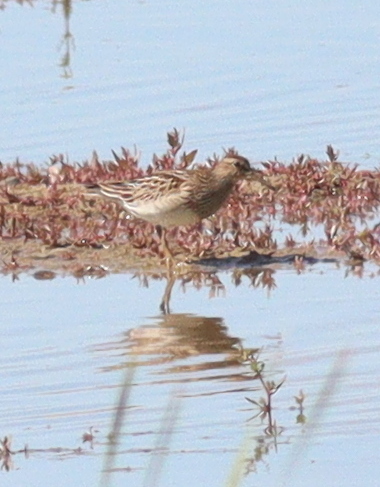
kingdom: Animalia
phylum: Chordata
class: Aves
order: Charadriiformes
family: Scolopacidae
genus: Calidris
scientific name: Calidris melanotos
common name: Pectoral sandpiper
